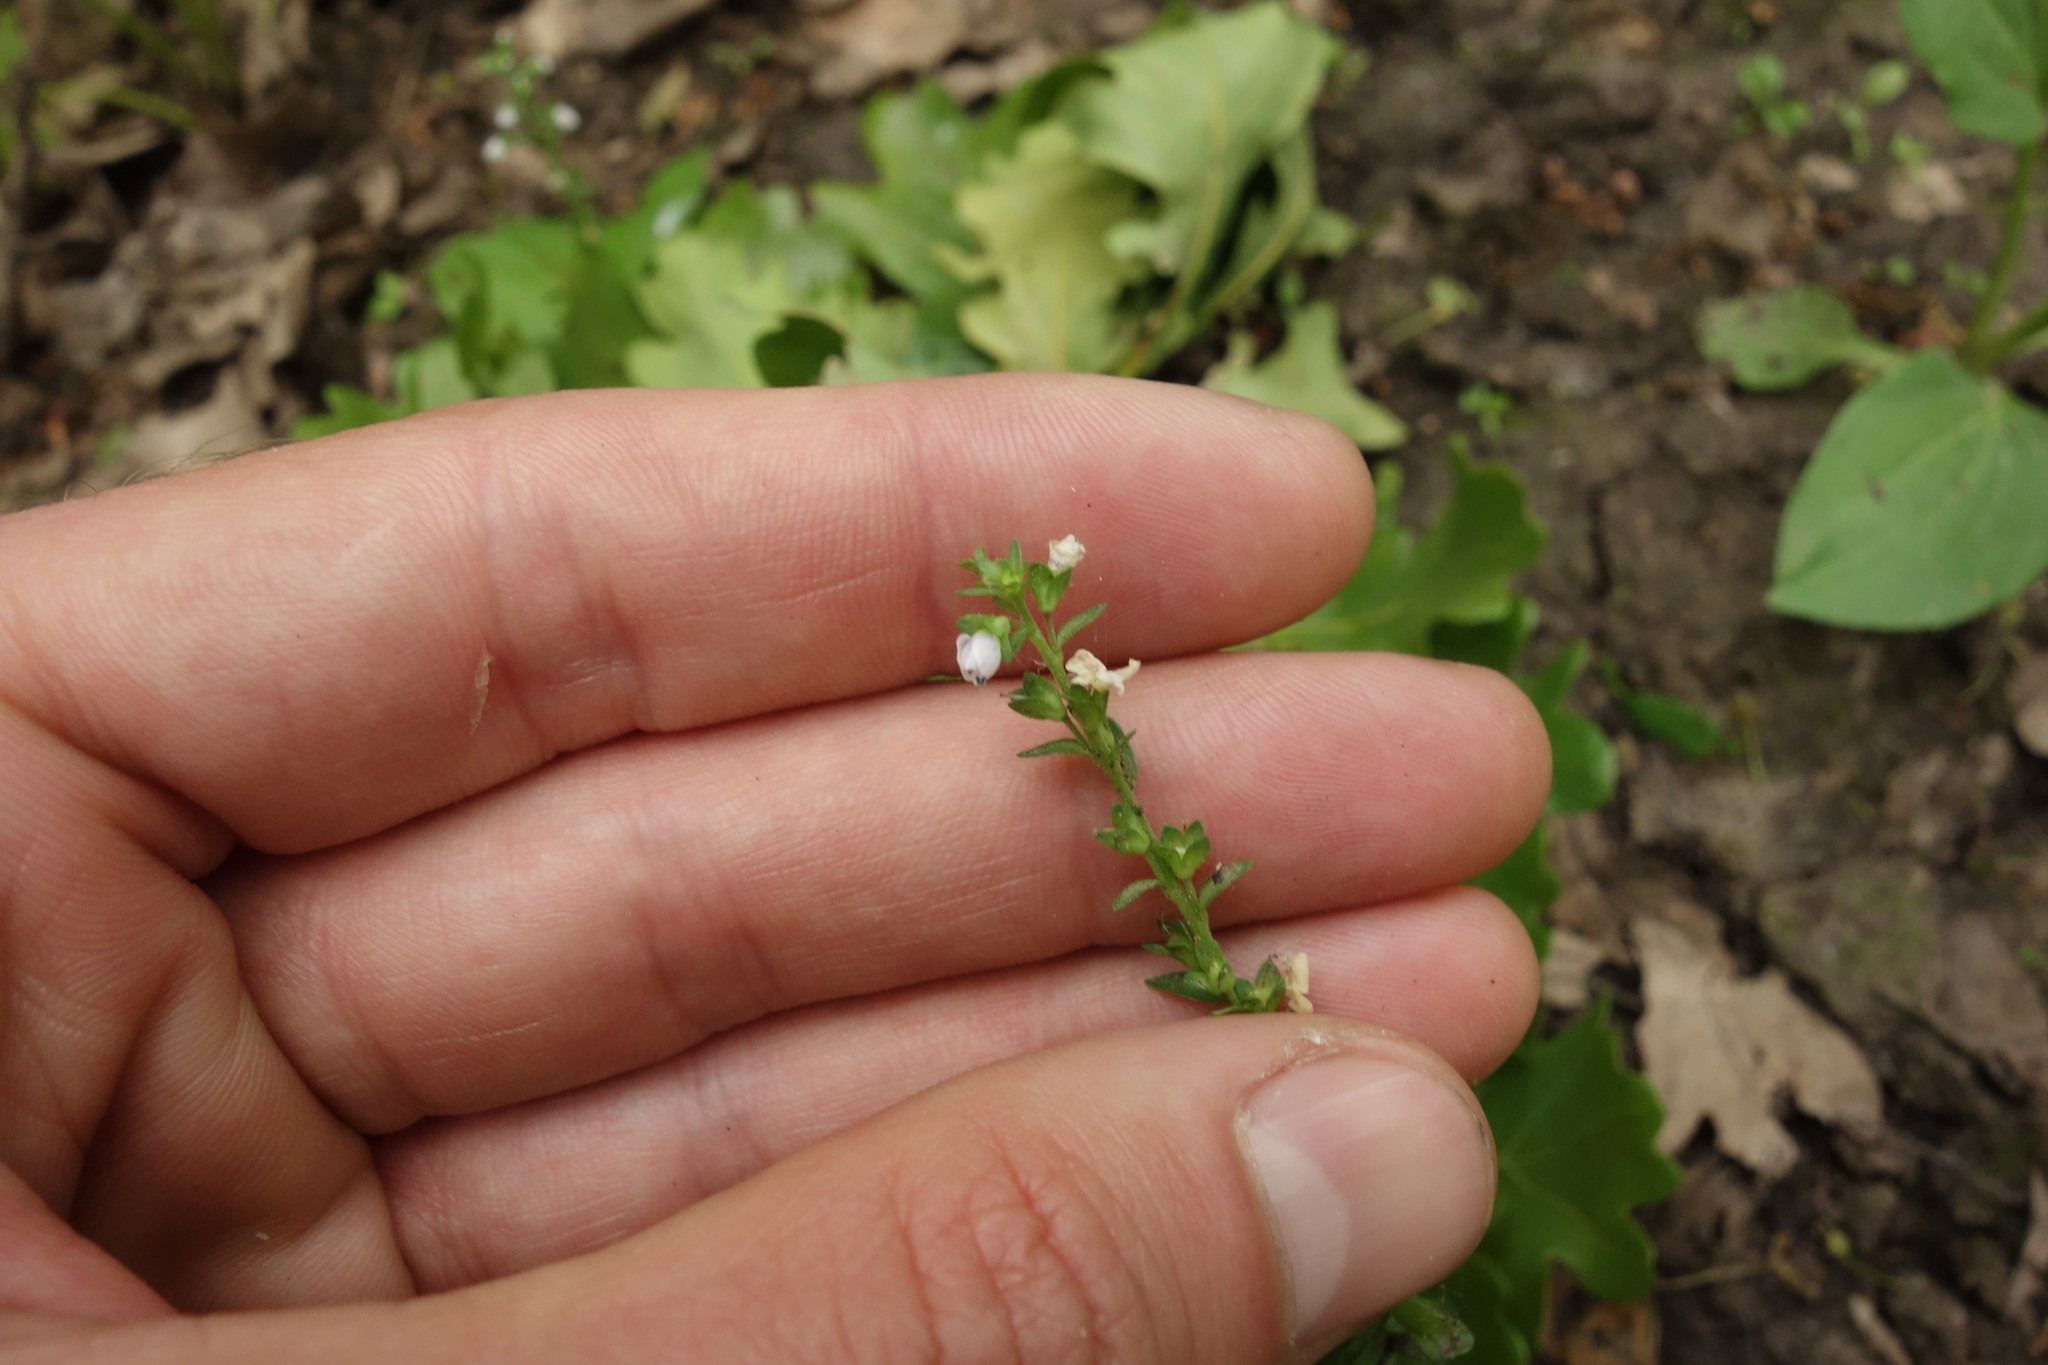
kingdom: Plantae
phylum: Tracheophyta
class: Magnoliopsida
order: Lamiales
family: Plantaginaceae
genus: Veronica
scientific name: Veronica serpyllifolia
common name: Thyme-leaved speedwell
